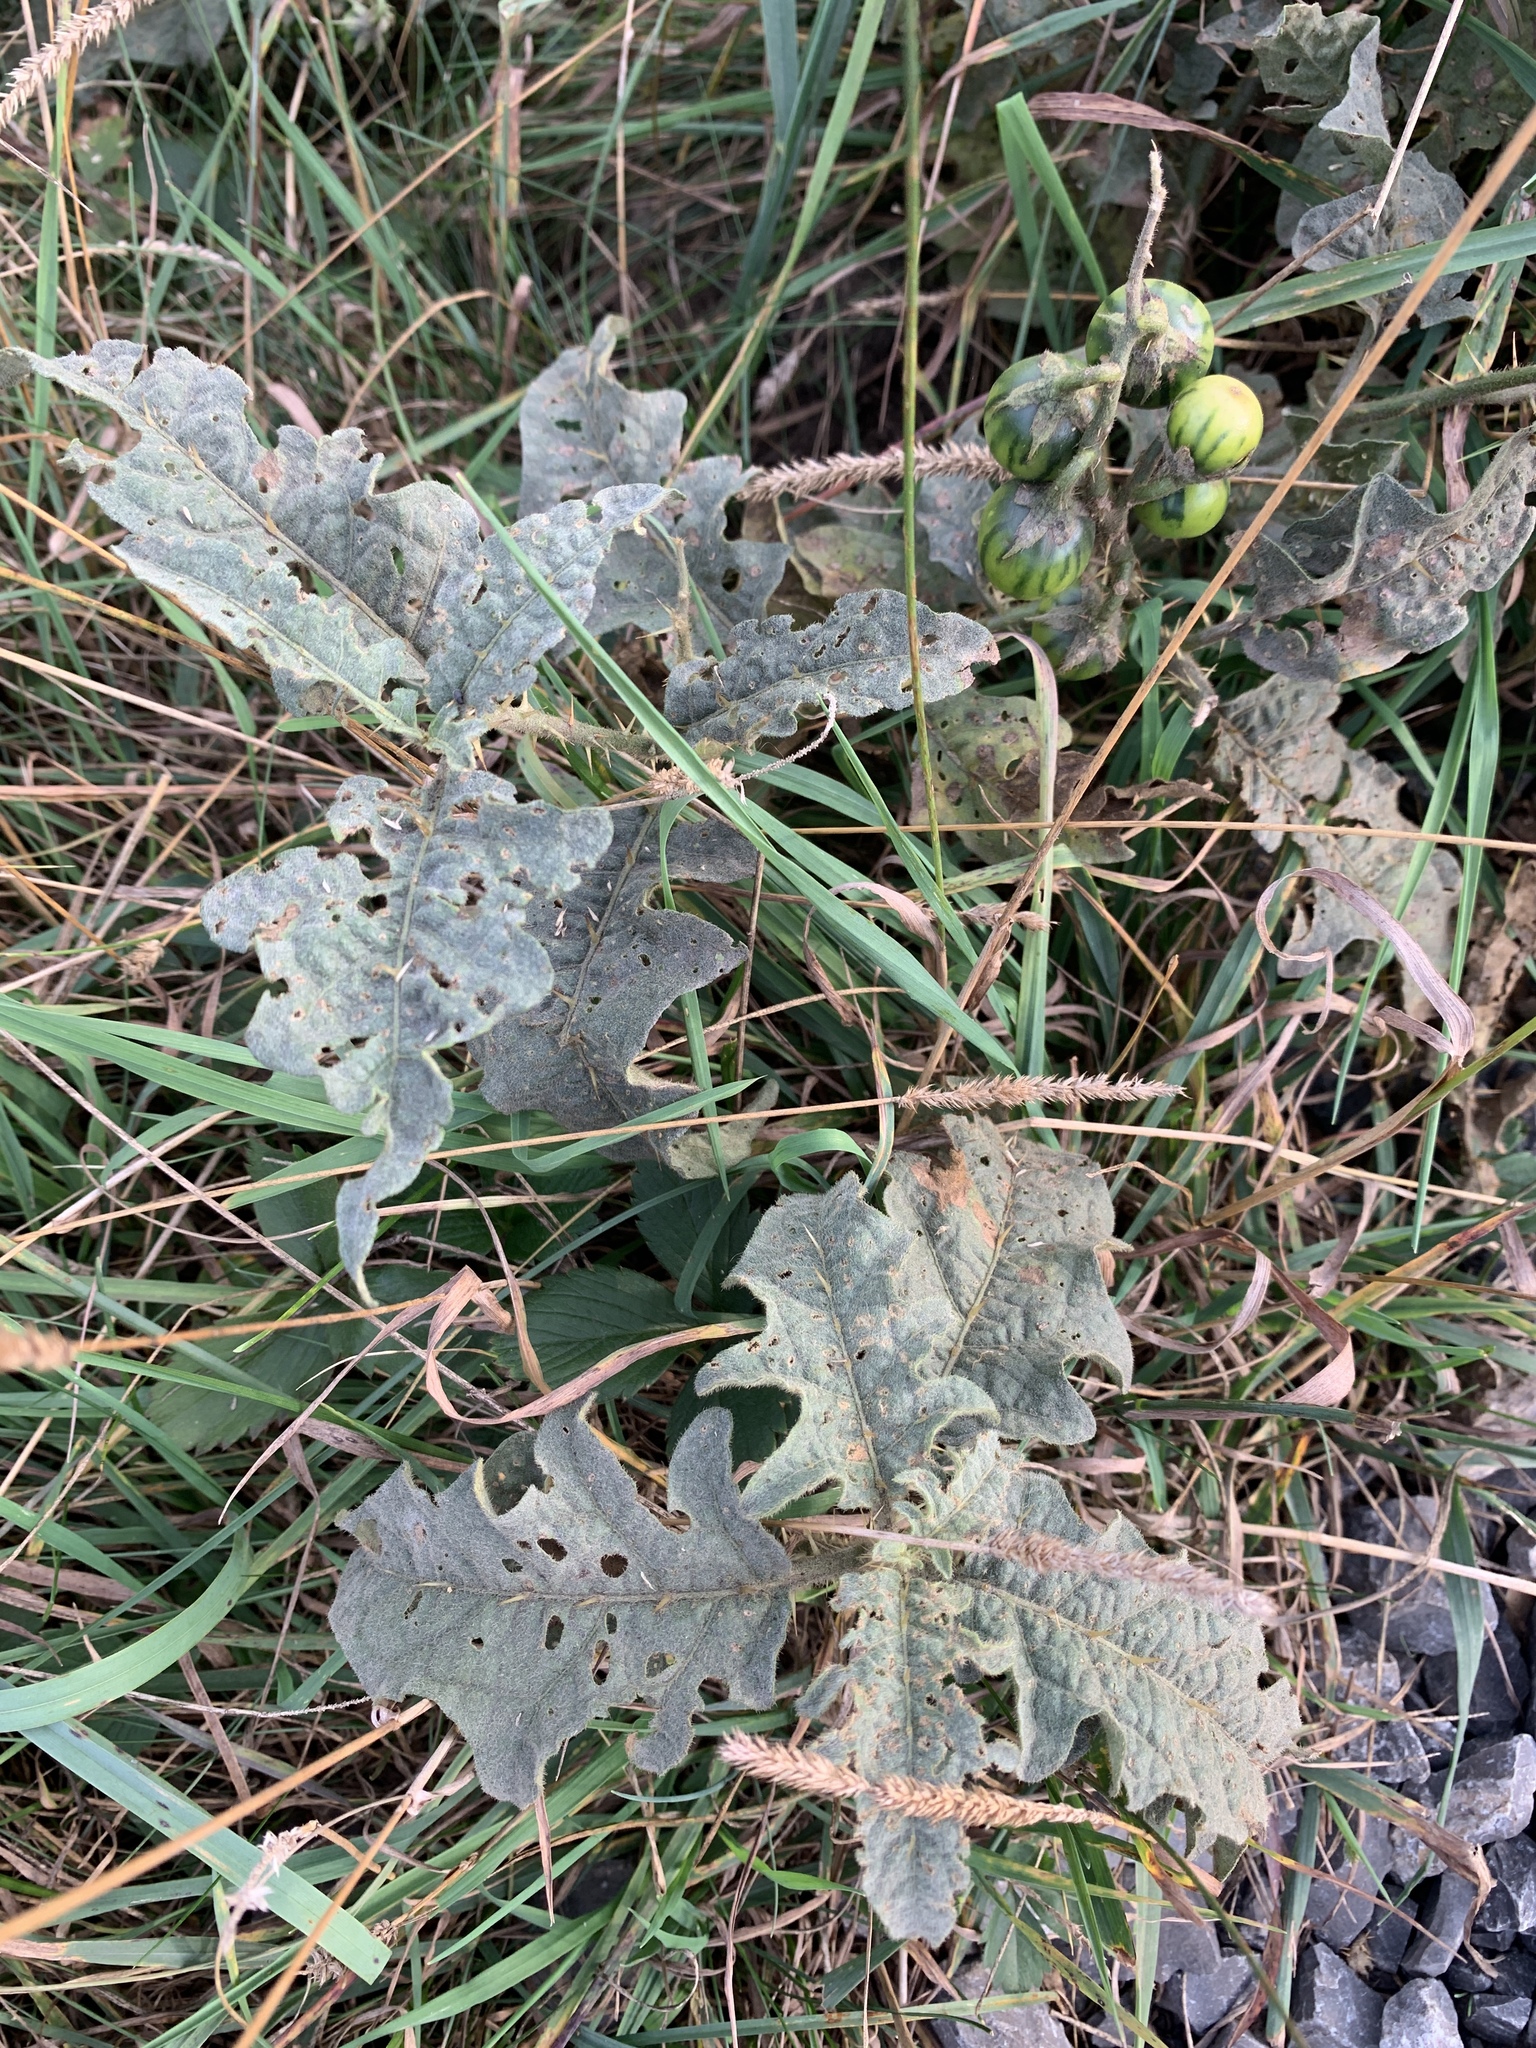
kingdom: Plantae
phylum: Tracheophyta
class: Magnoliopsida
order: Solanales
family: Solanaceae
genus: Solanum
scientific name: Solanum carolinense
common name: Horse-nettle
